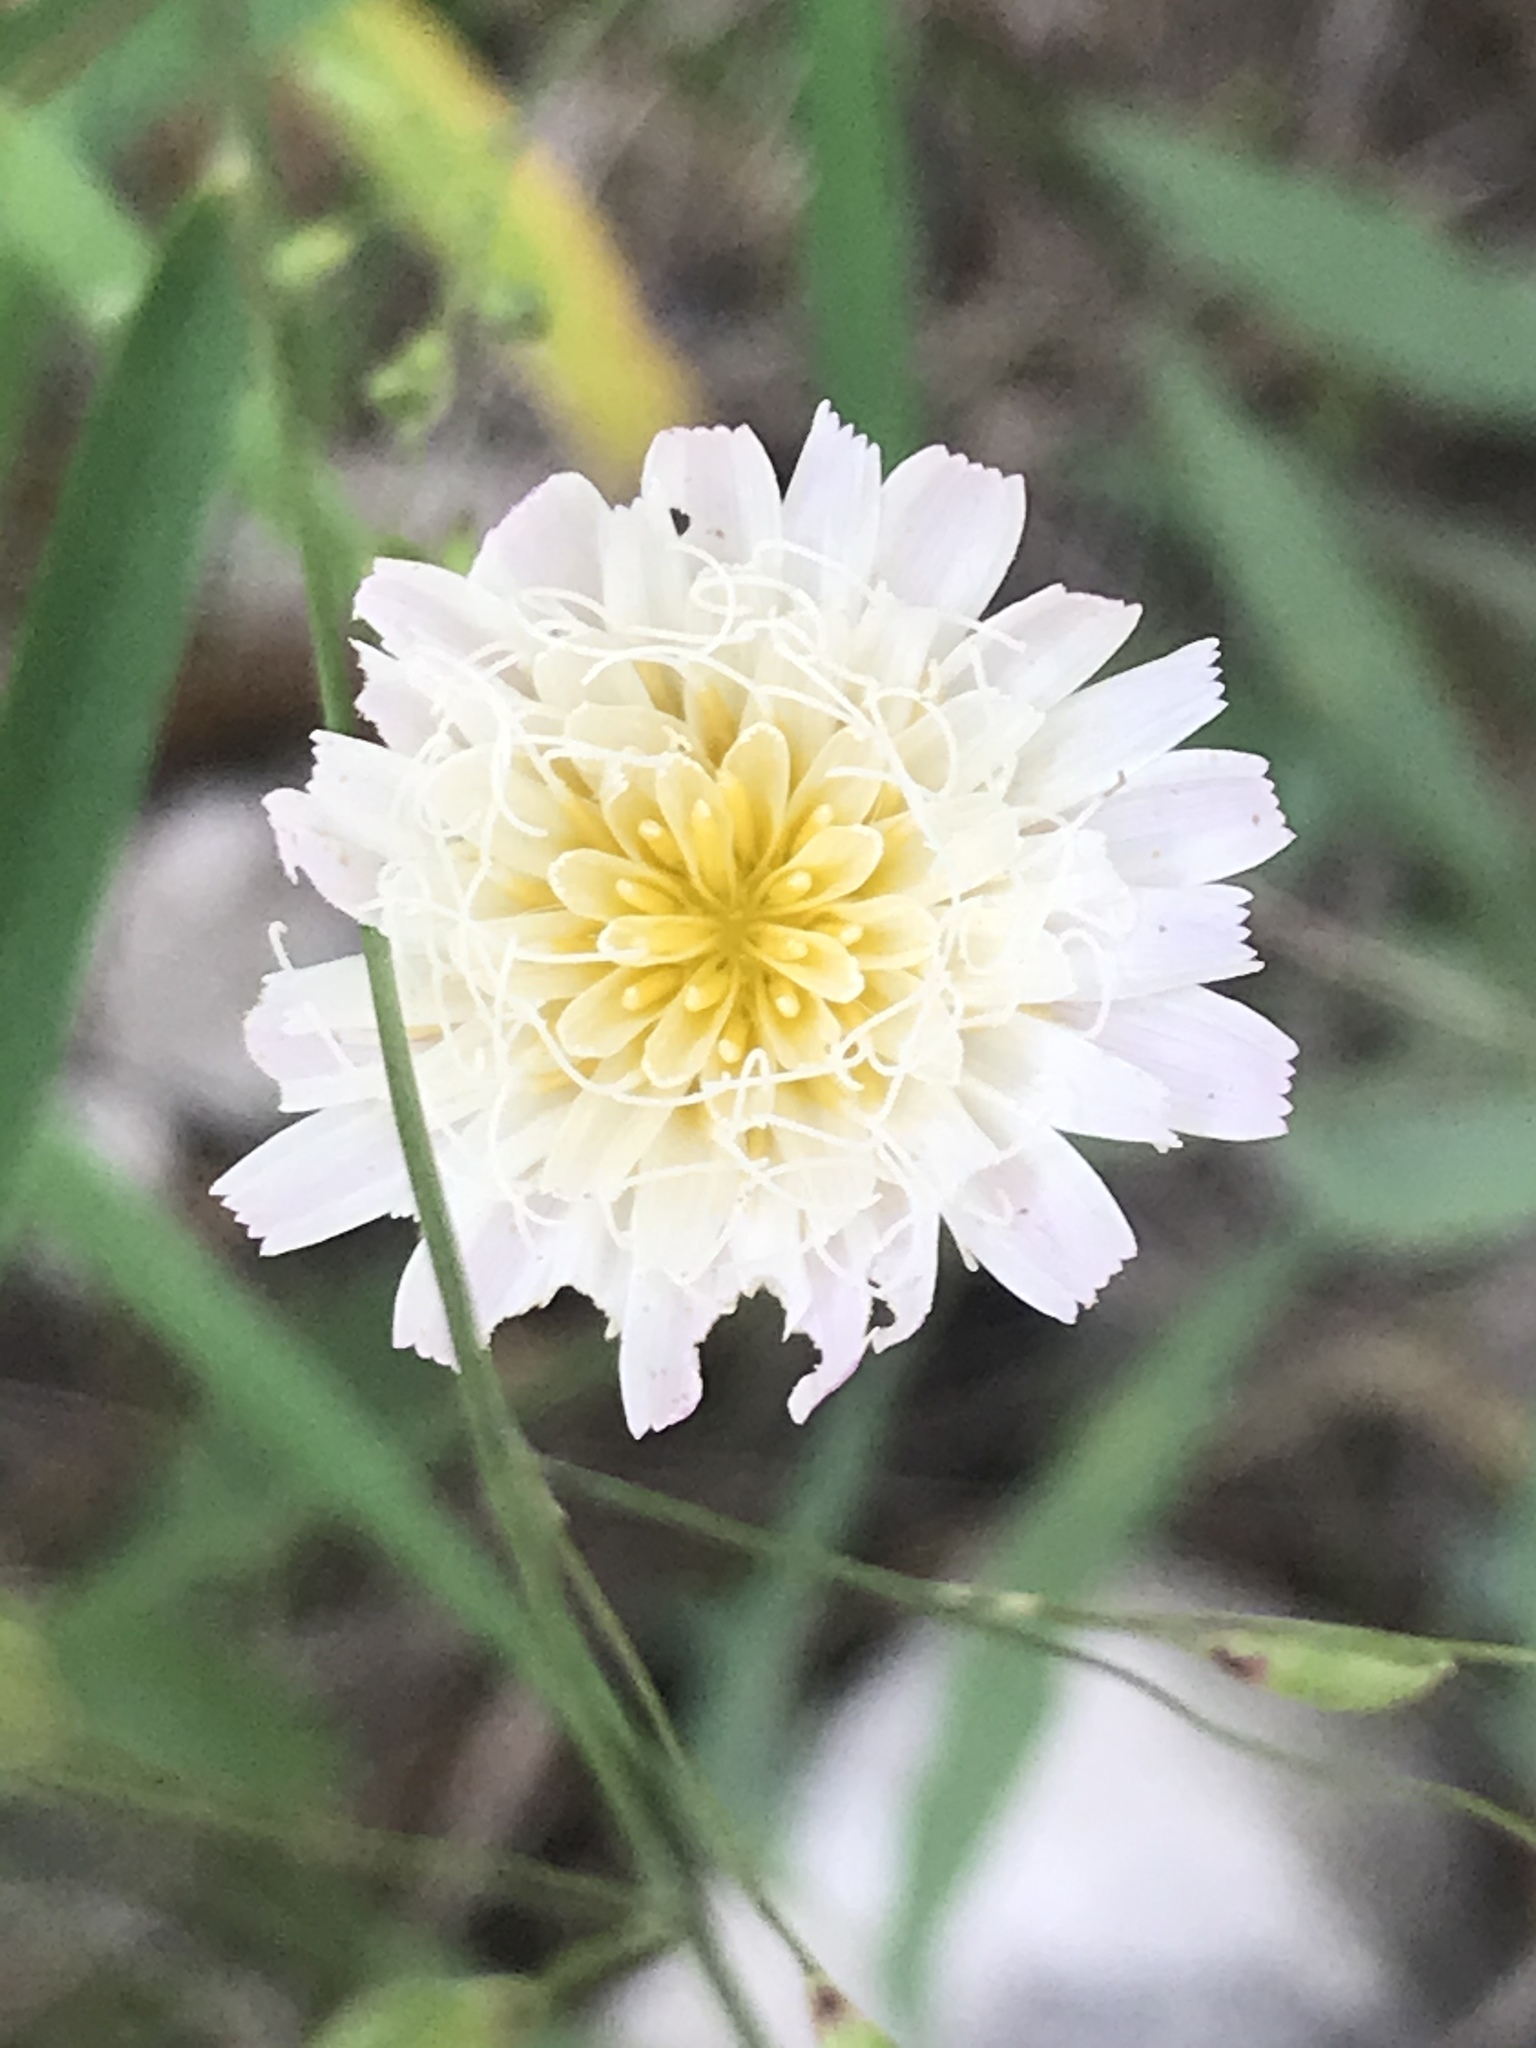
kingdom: Plantae
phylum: Tracheophyta
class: Magnoliopsida
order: Asterales
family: Asteraceae
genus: Pinaropappus
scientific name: Pinaropappus roseus
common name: Rock-lettuce
